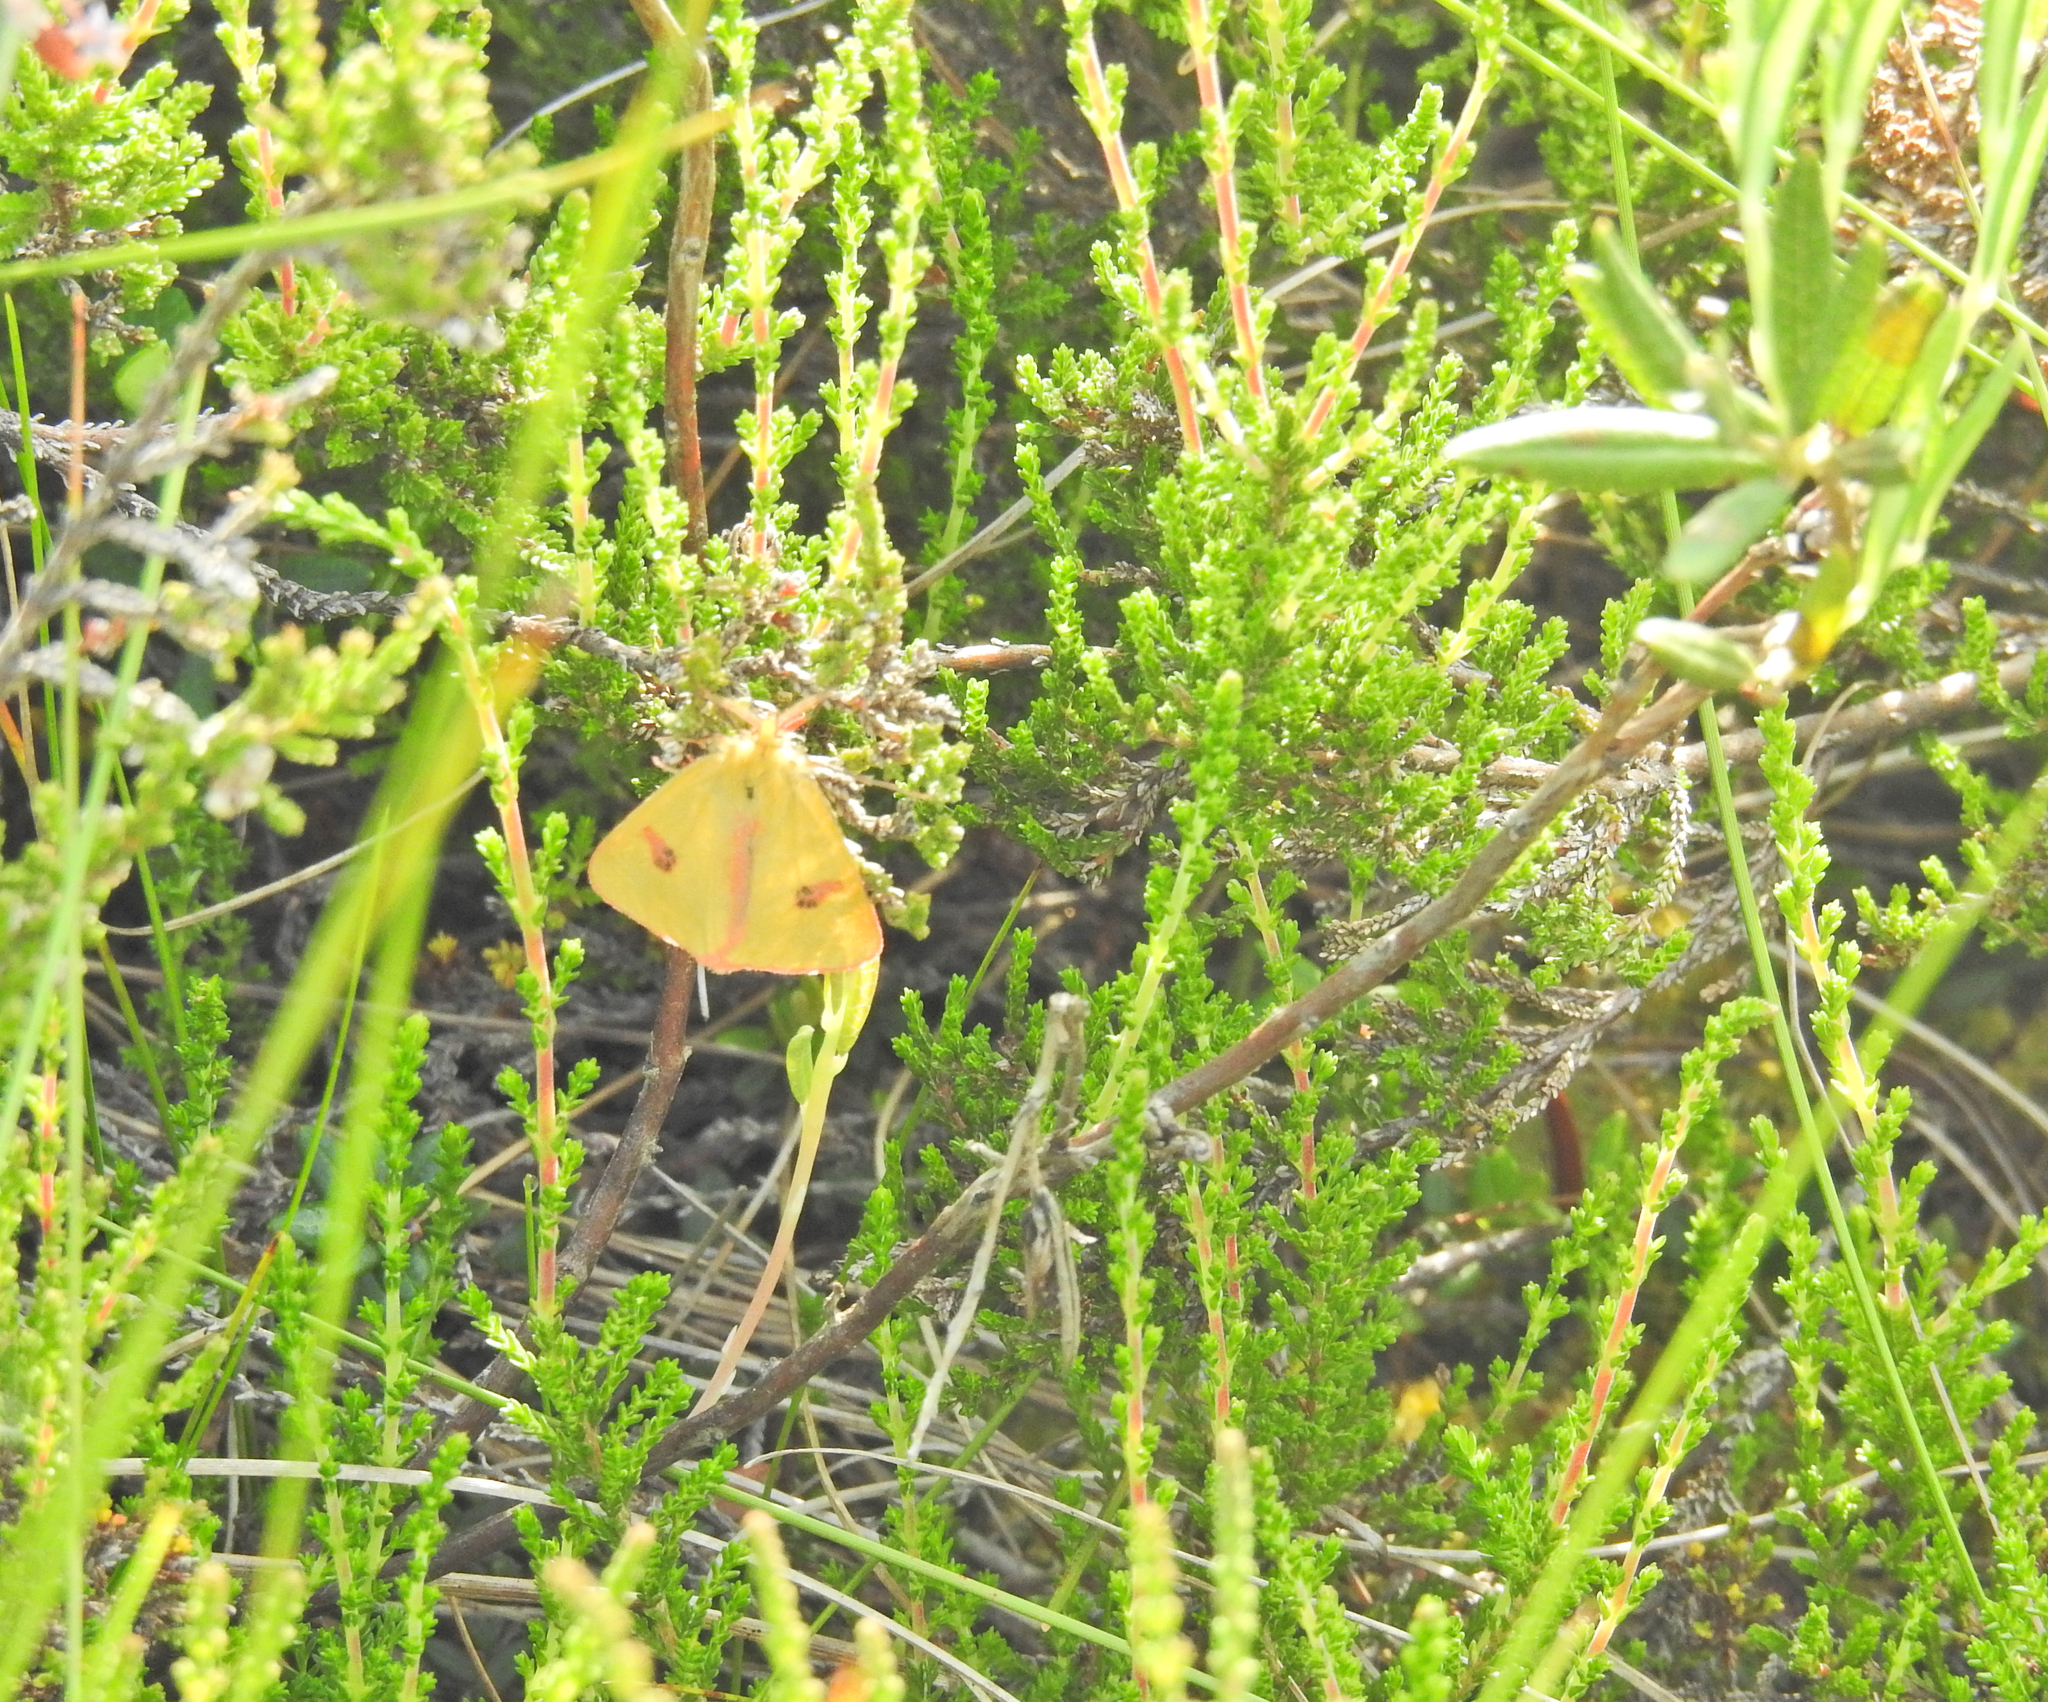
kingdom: Animalia
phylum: Arthropoda
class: Insecta
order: Lepidoptera
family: Erebidae
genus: Diacrisia
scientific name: Diacrisia sannio
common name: Clouded buff
